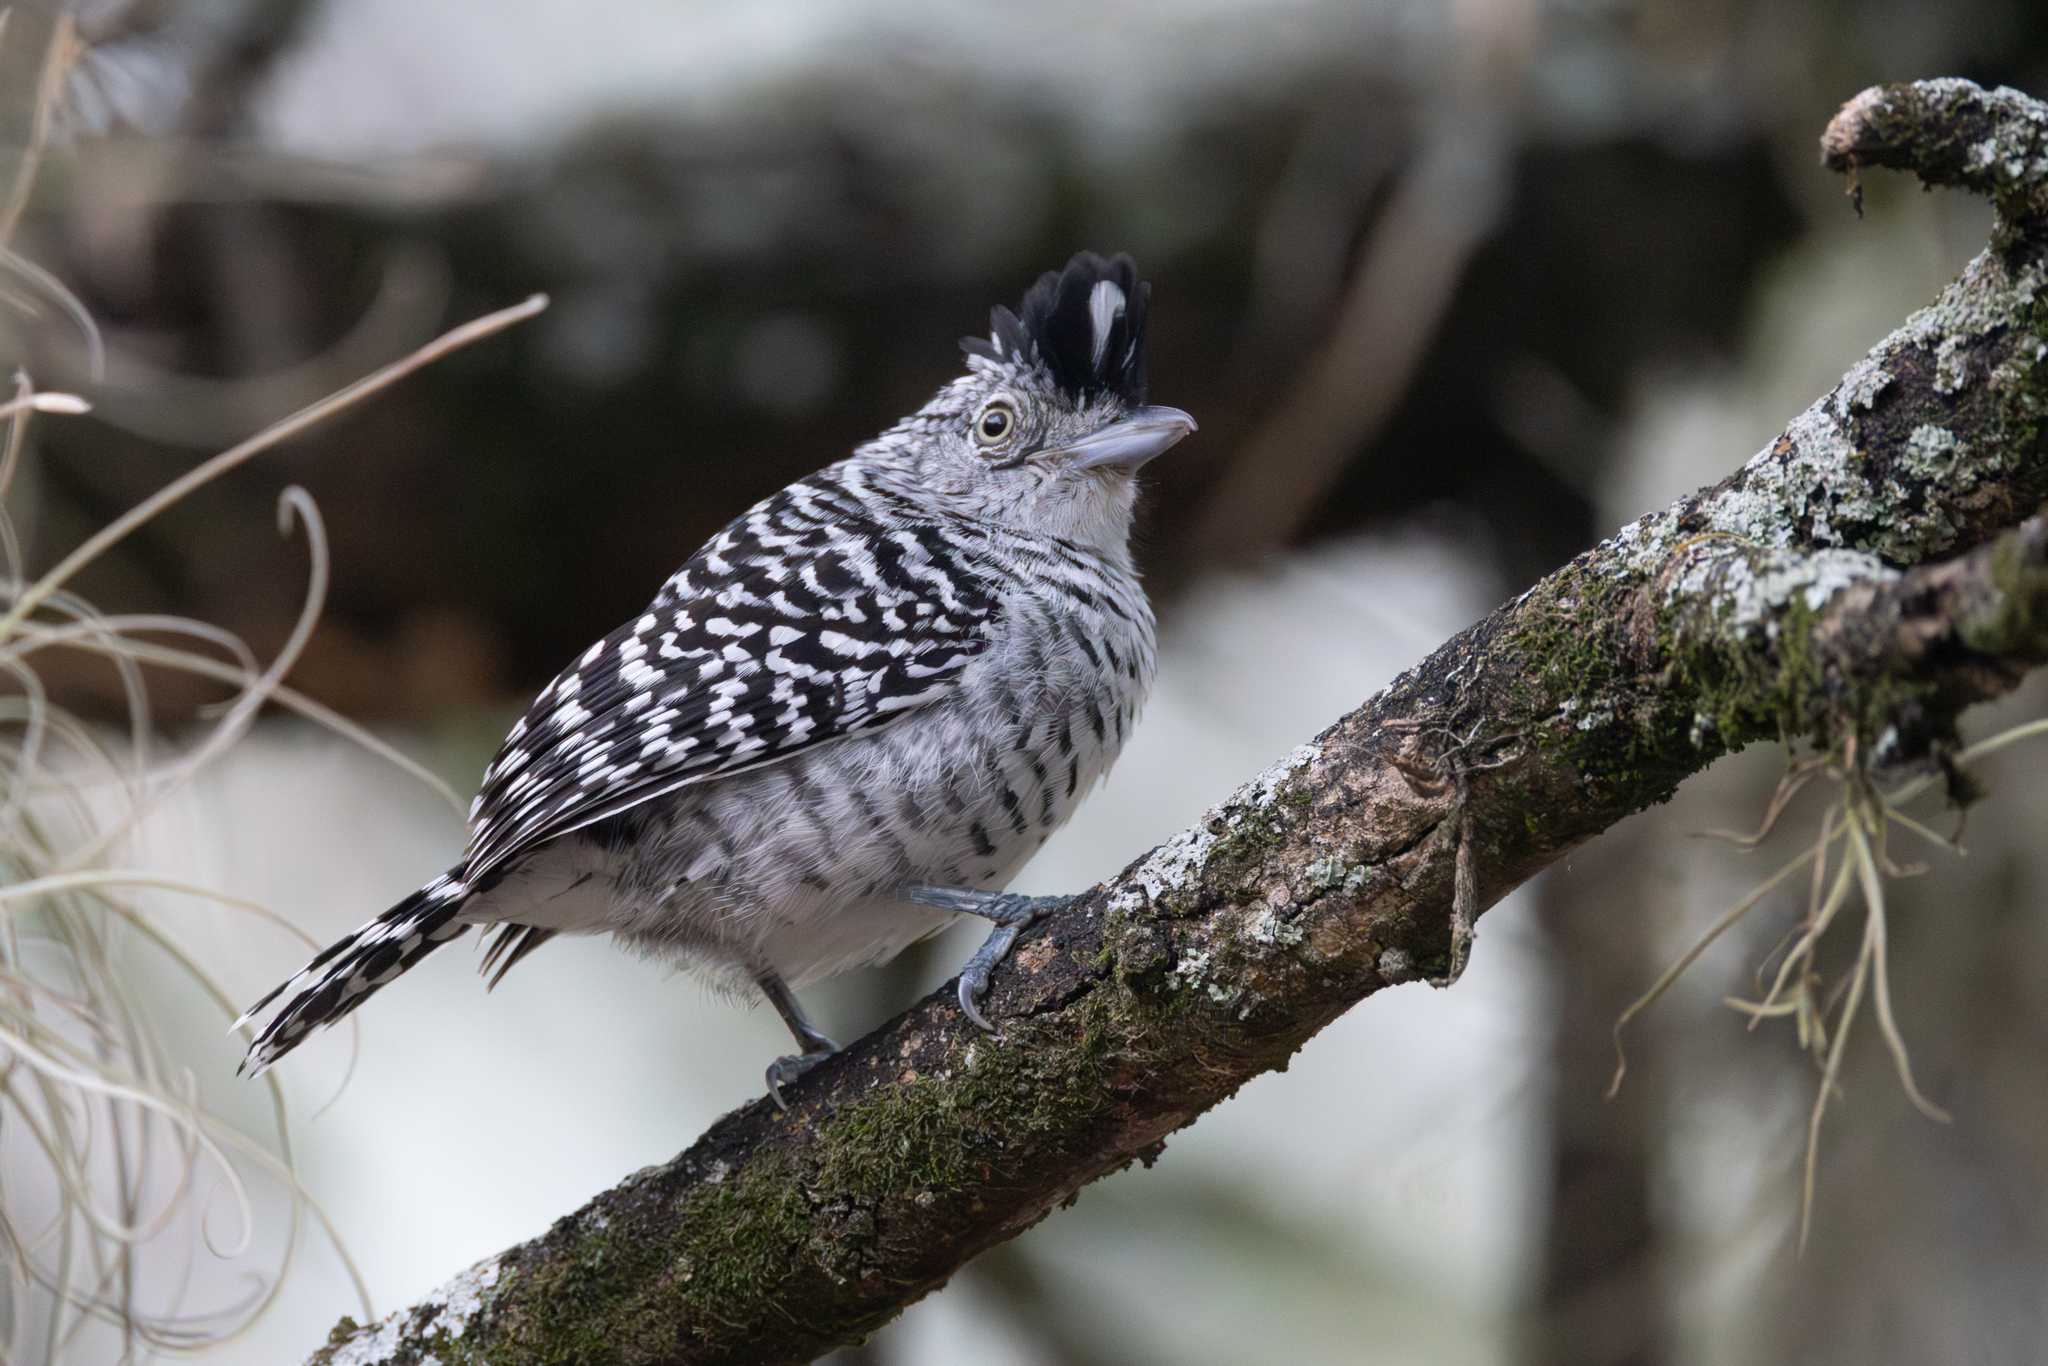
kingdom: Animalia
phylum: Chordata
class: Aves
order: Passeriformes
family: Thamnophilidae
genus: Thamnophilus
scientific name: Thamnophilus doliatus
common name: Barred antshrike
